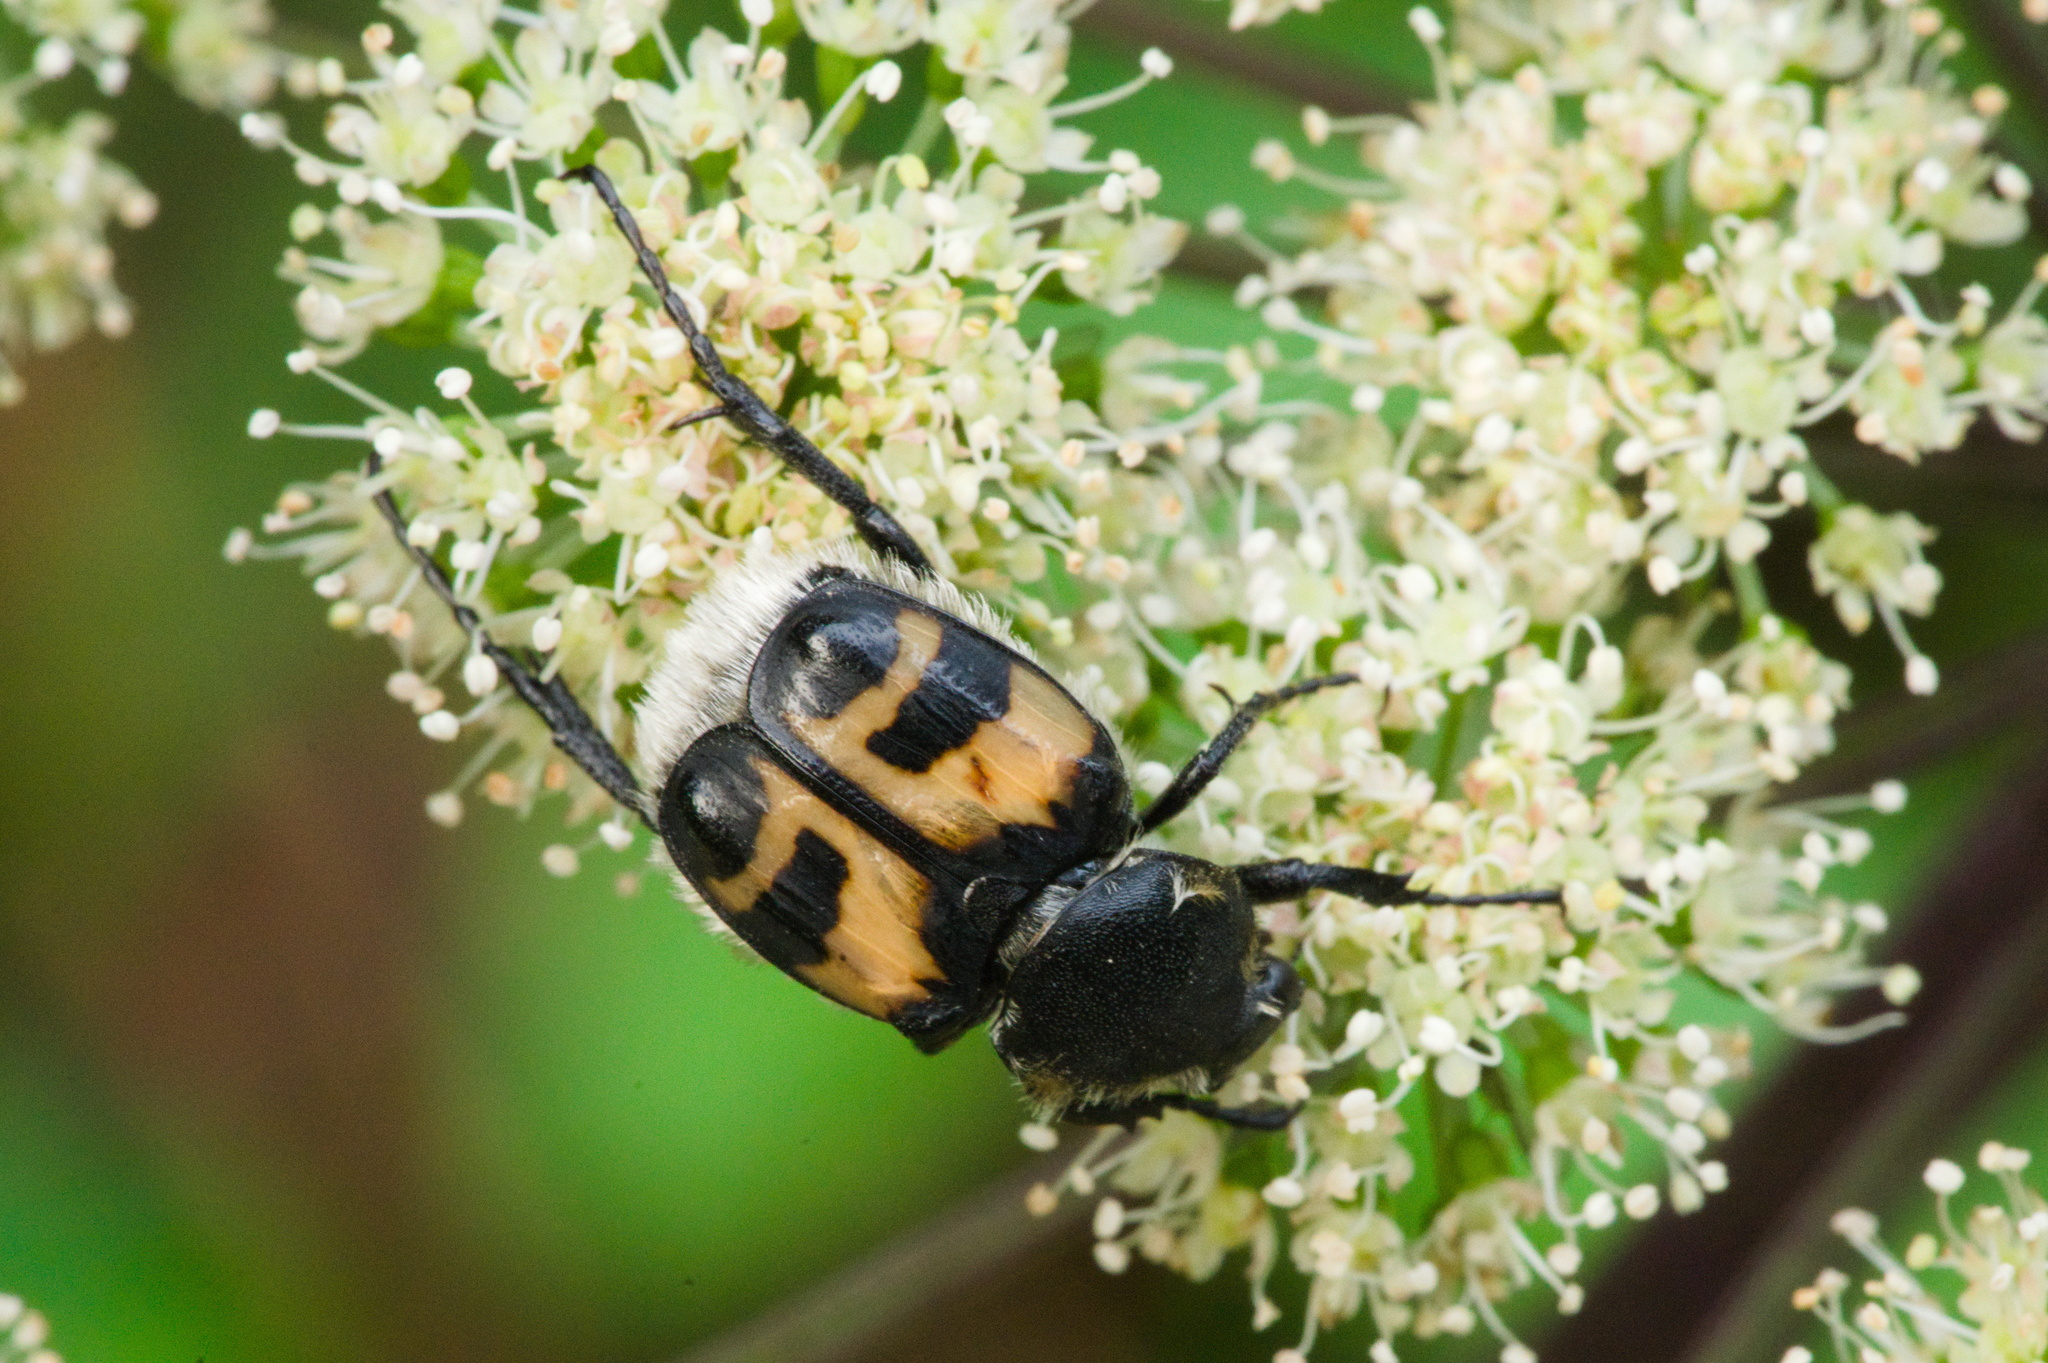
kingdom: Animalia
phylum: Arthropoda
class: Insecta
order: Coleoptera
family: Scarabaeidae
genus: Trichius
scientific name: Trichius fasciatus
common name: Bee beetle
